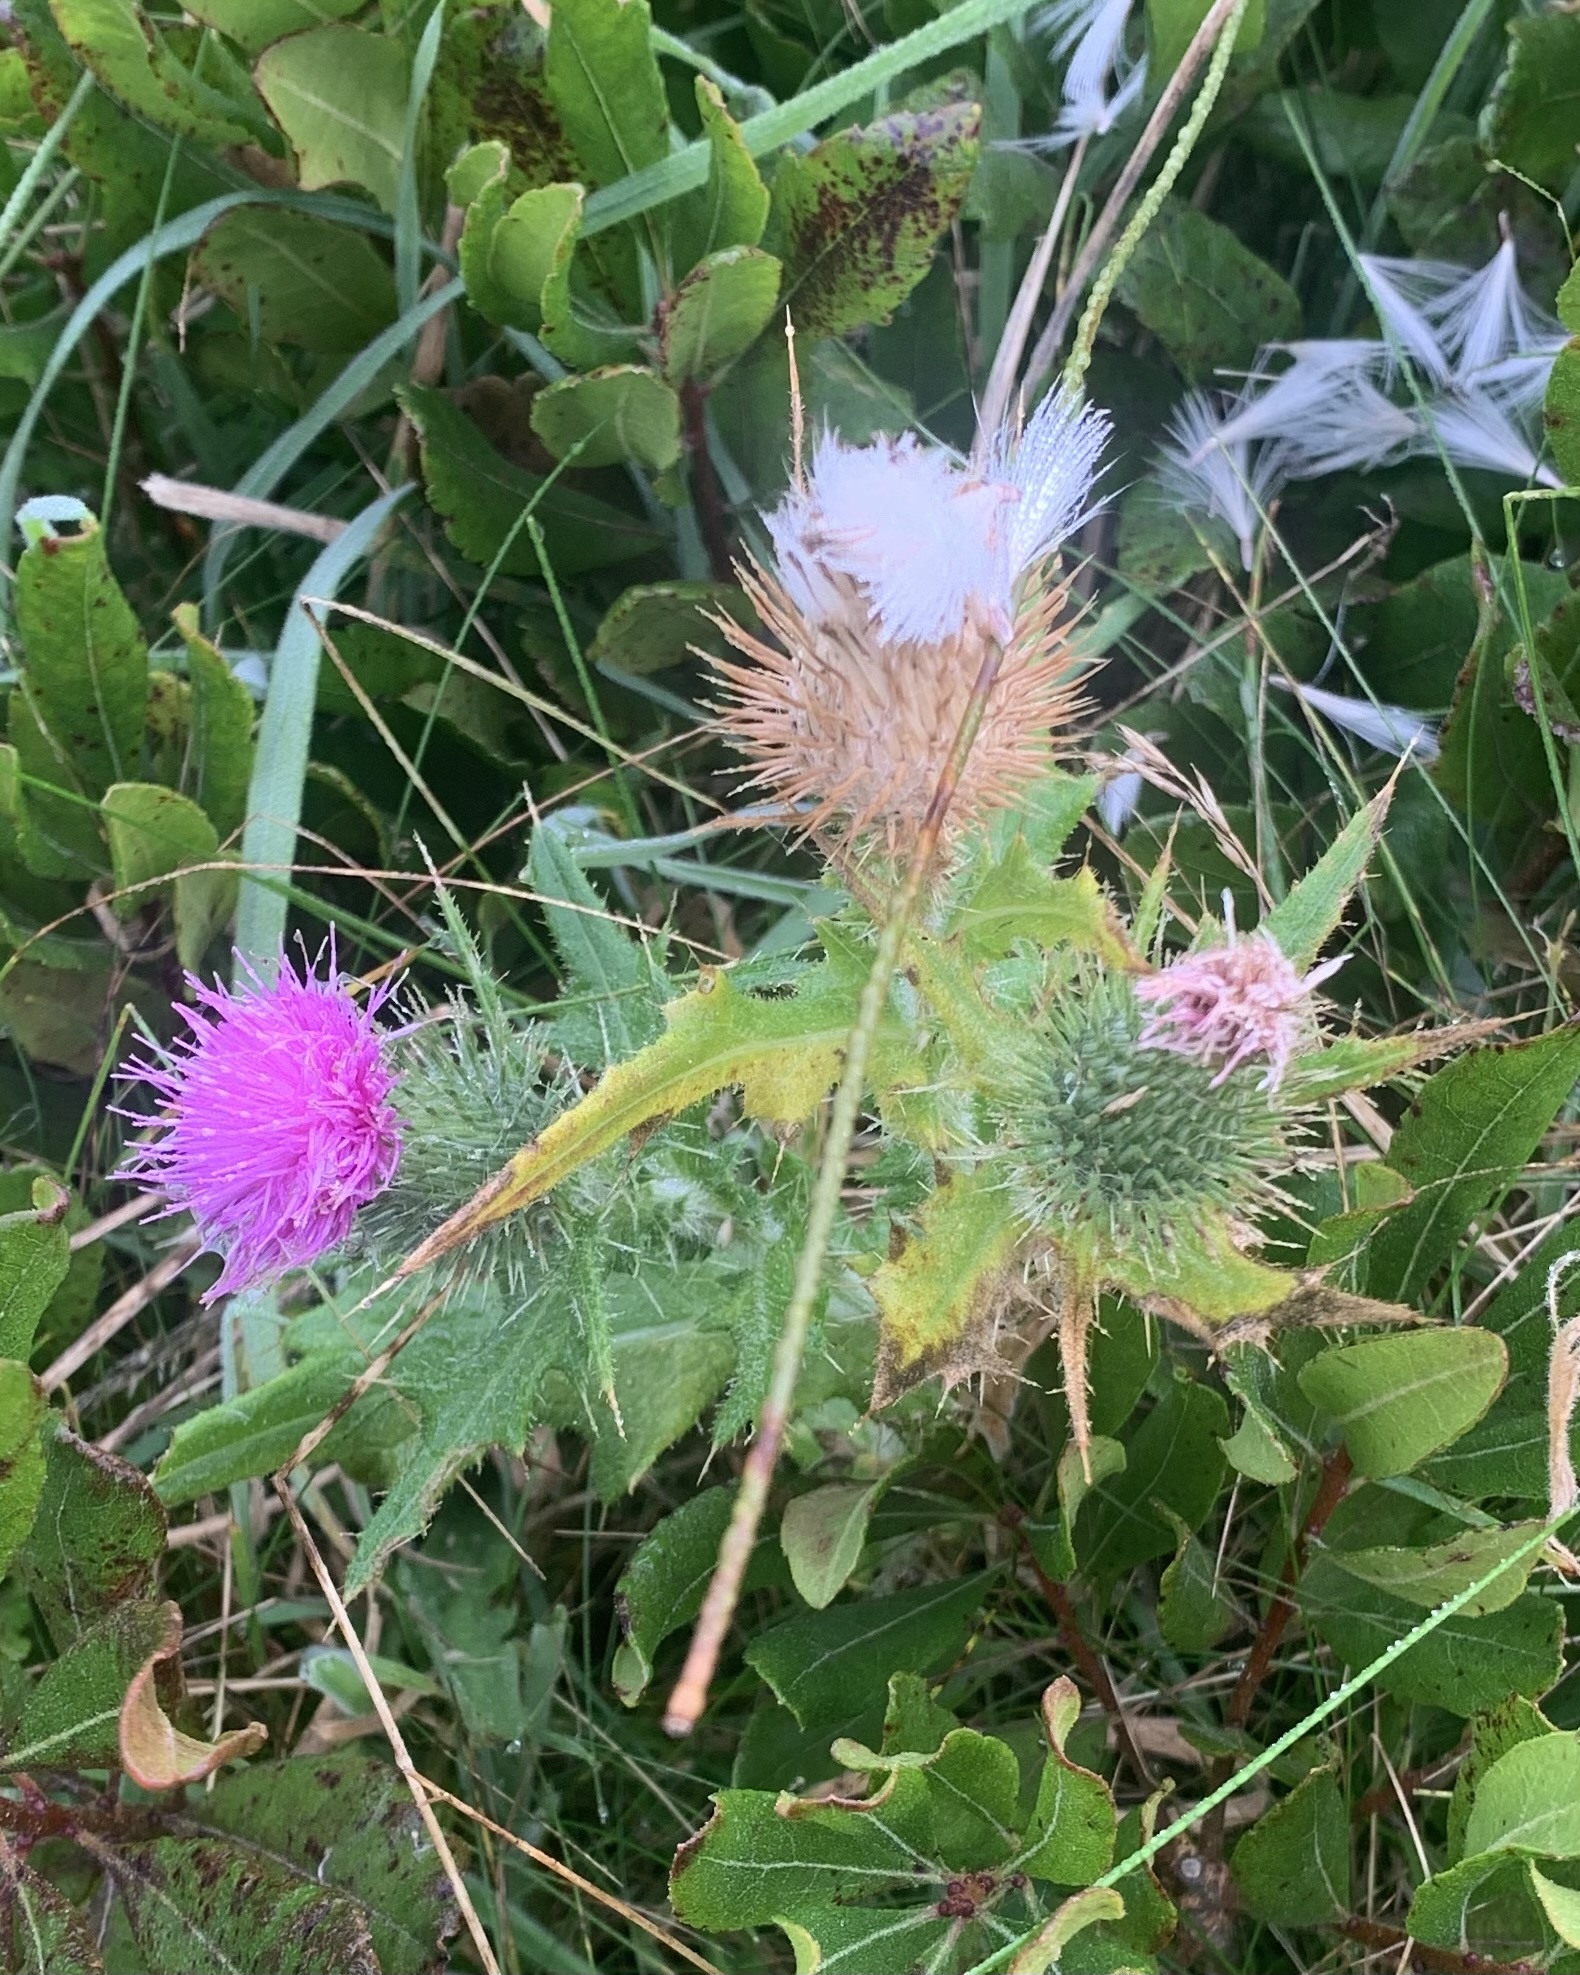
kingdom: Plantae
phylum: Tracheophyta
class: Magnoliopsida
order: Asterales
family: Asteraceae
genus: Cirsium
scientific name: Cirsium vulgare
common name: Bull thistle
